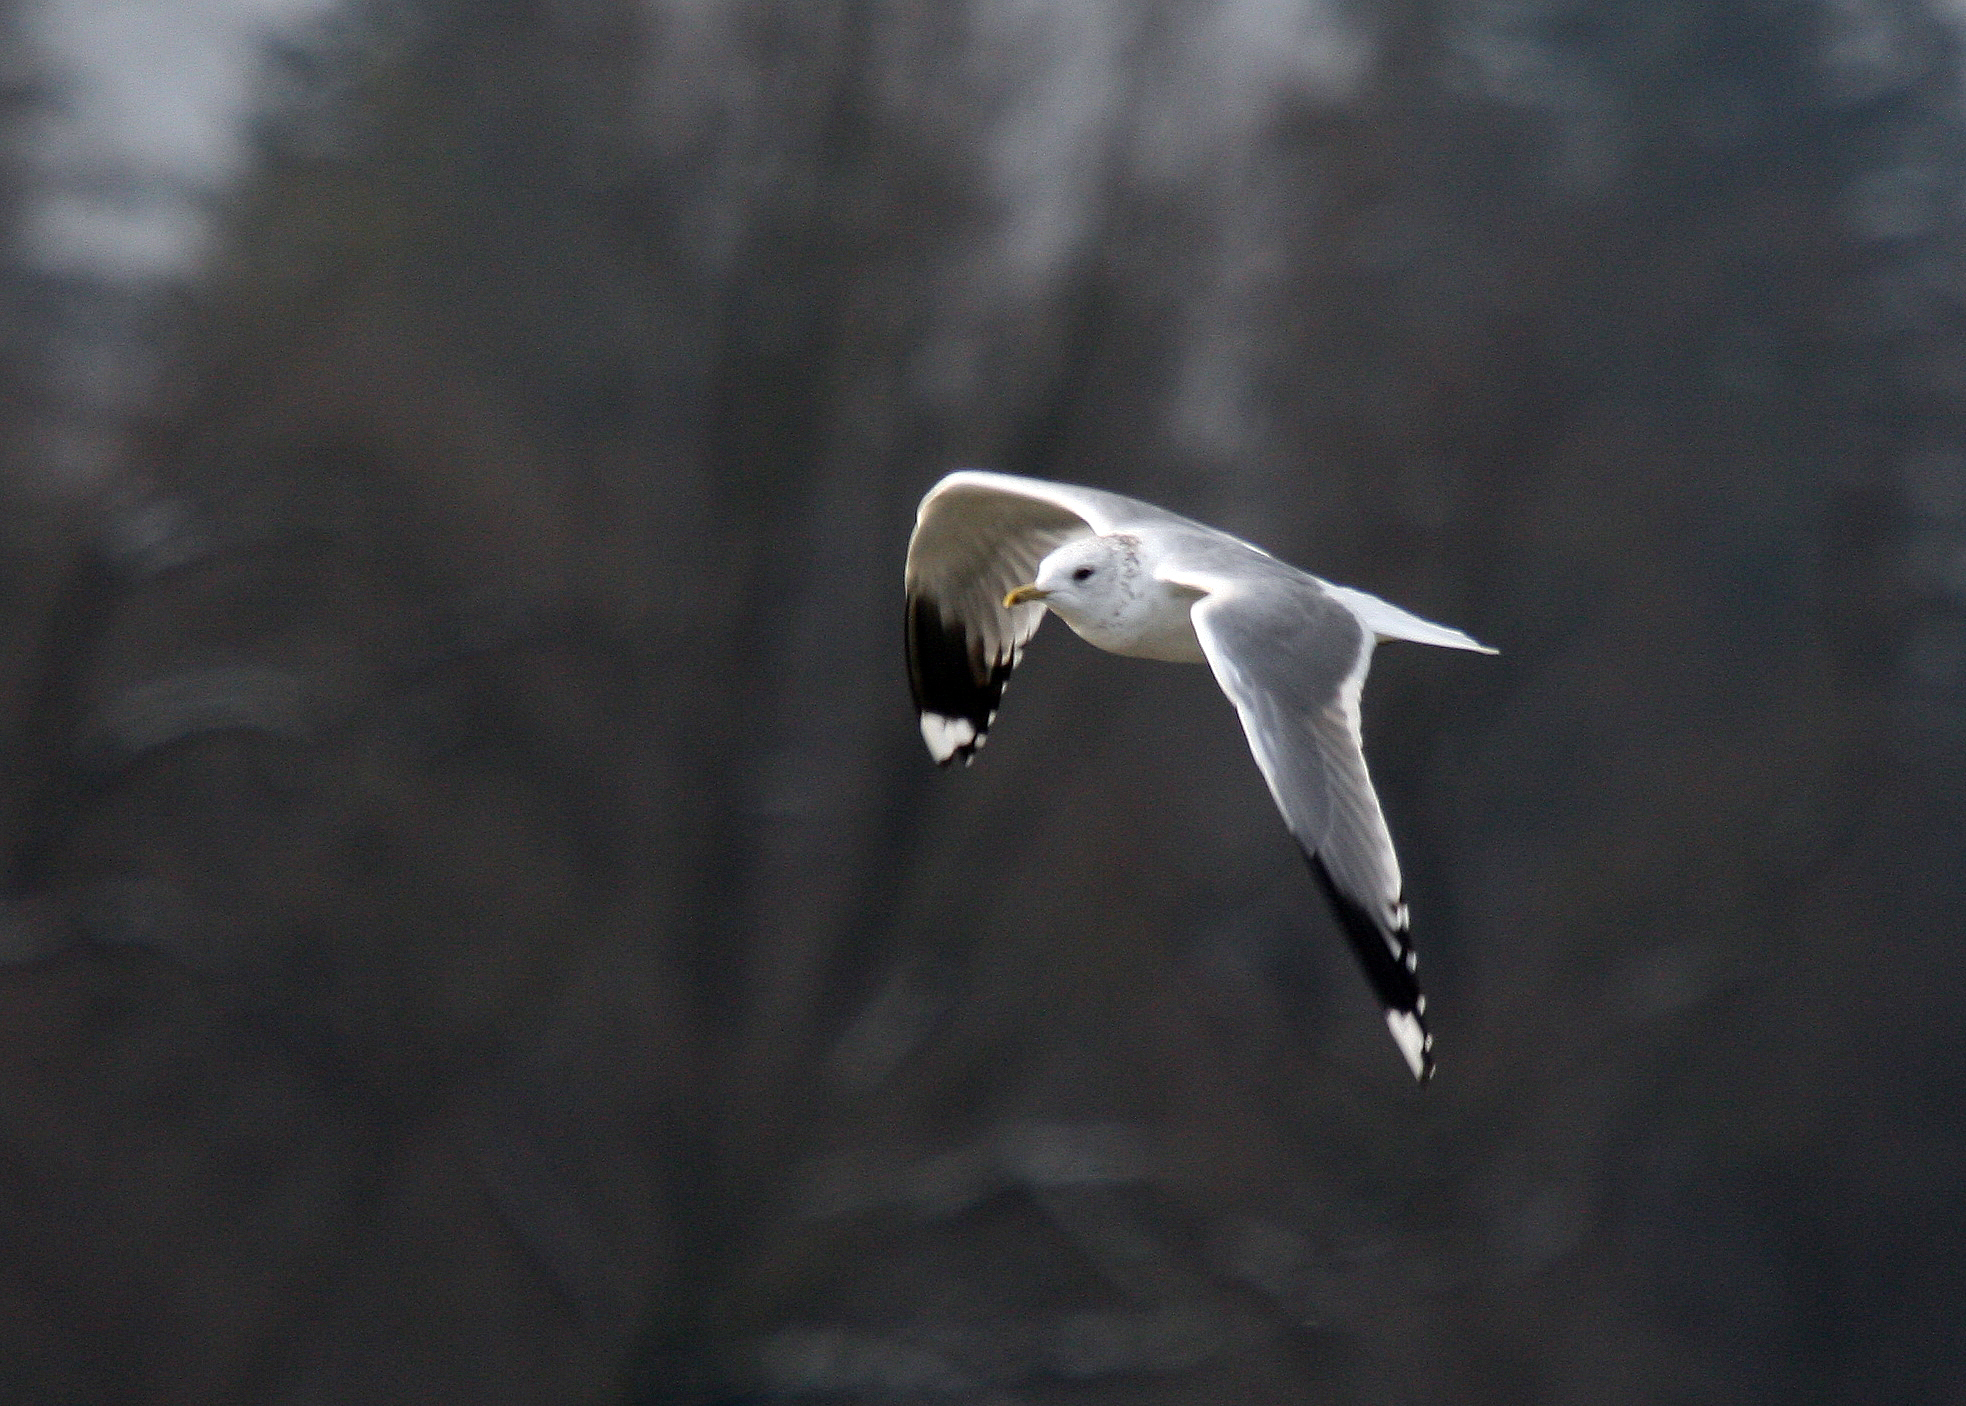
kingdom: Animalia
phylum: Chordata
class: Aves
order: Charadriiformes
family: Laridae
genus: Larus
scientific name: Larus canus
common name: Mew gull
